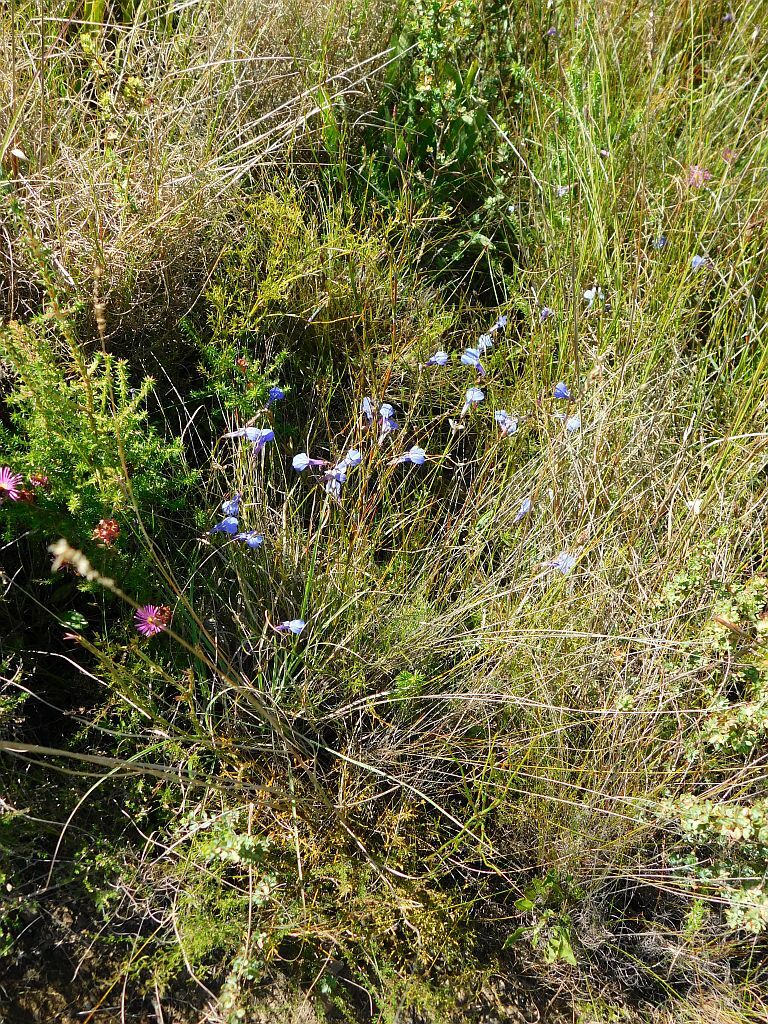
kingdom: Plantae
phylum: Tracheophyta
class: Magnoliopsida
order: Asterales
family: Campanulaceae
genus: Lobelia
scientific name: Lobelia coronopifolia
